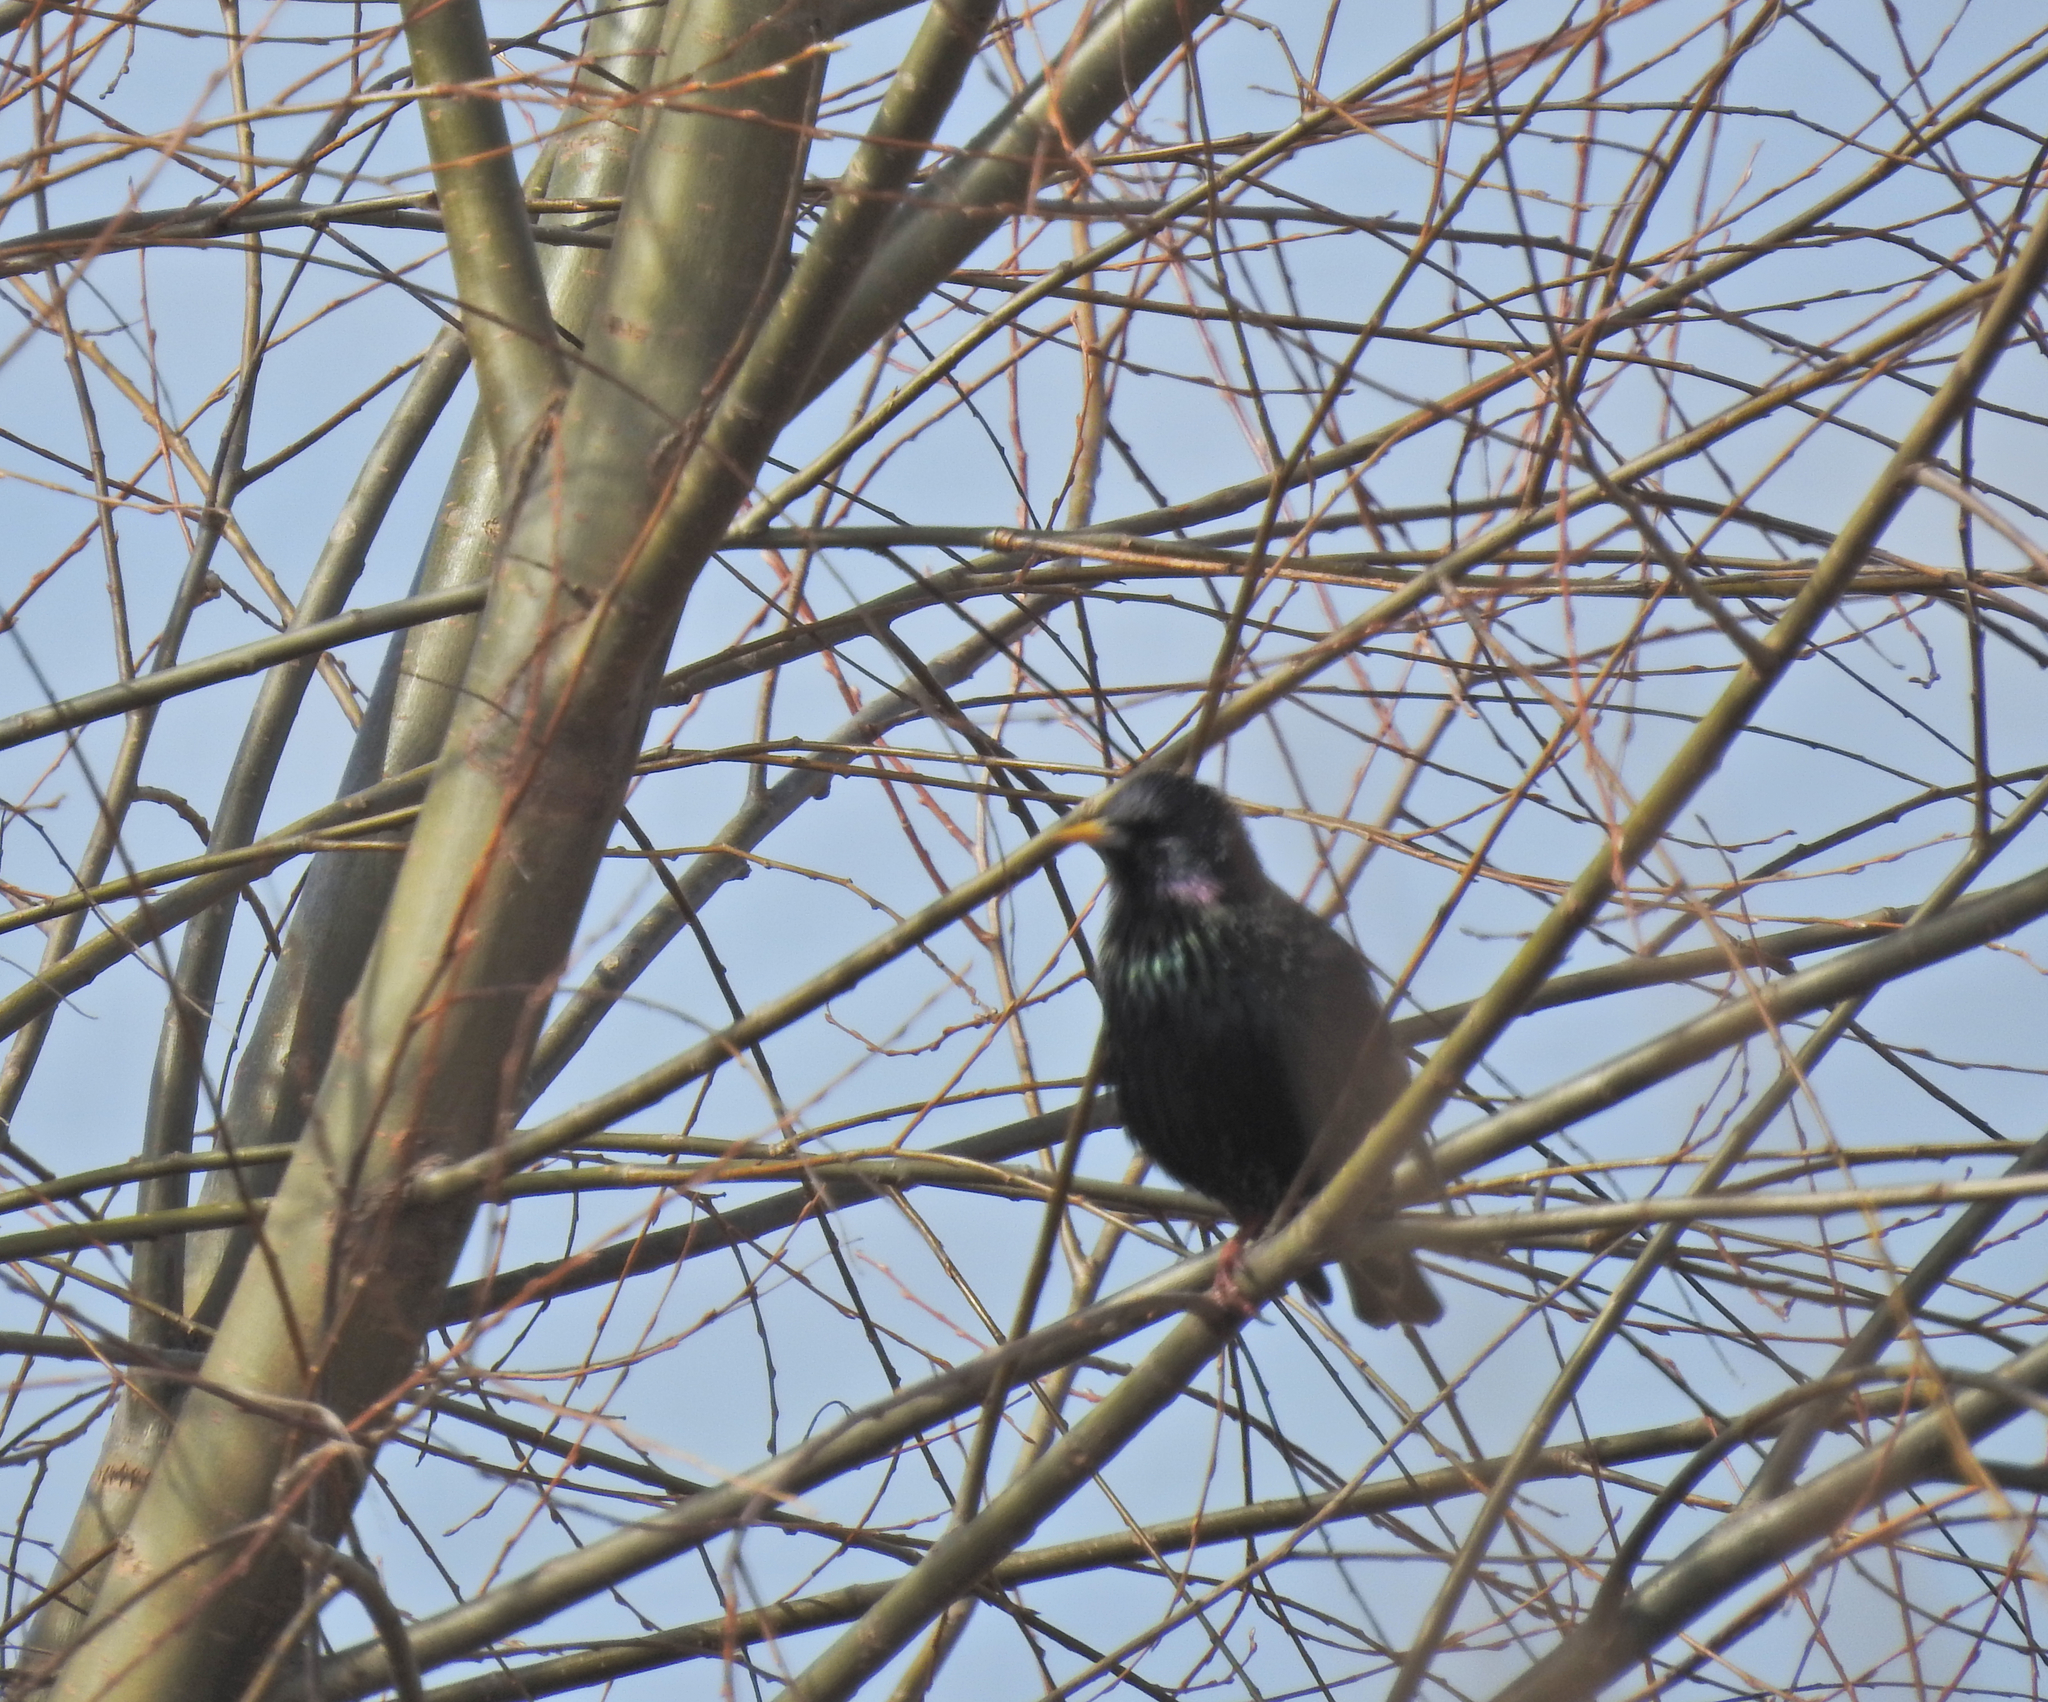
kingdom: Animalia
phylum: Chordata
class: Aves
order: Passeriformes
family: Sturnidae
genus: Sturnus
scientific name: Sturnus vulgaris
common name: Common starling
